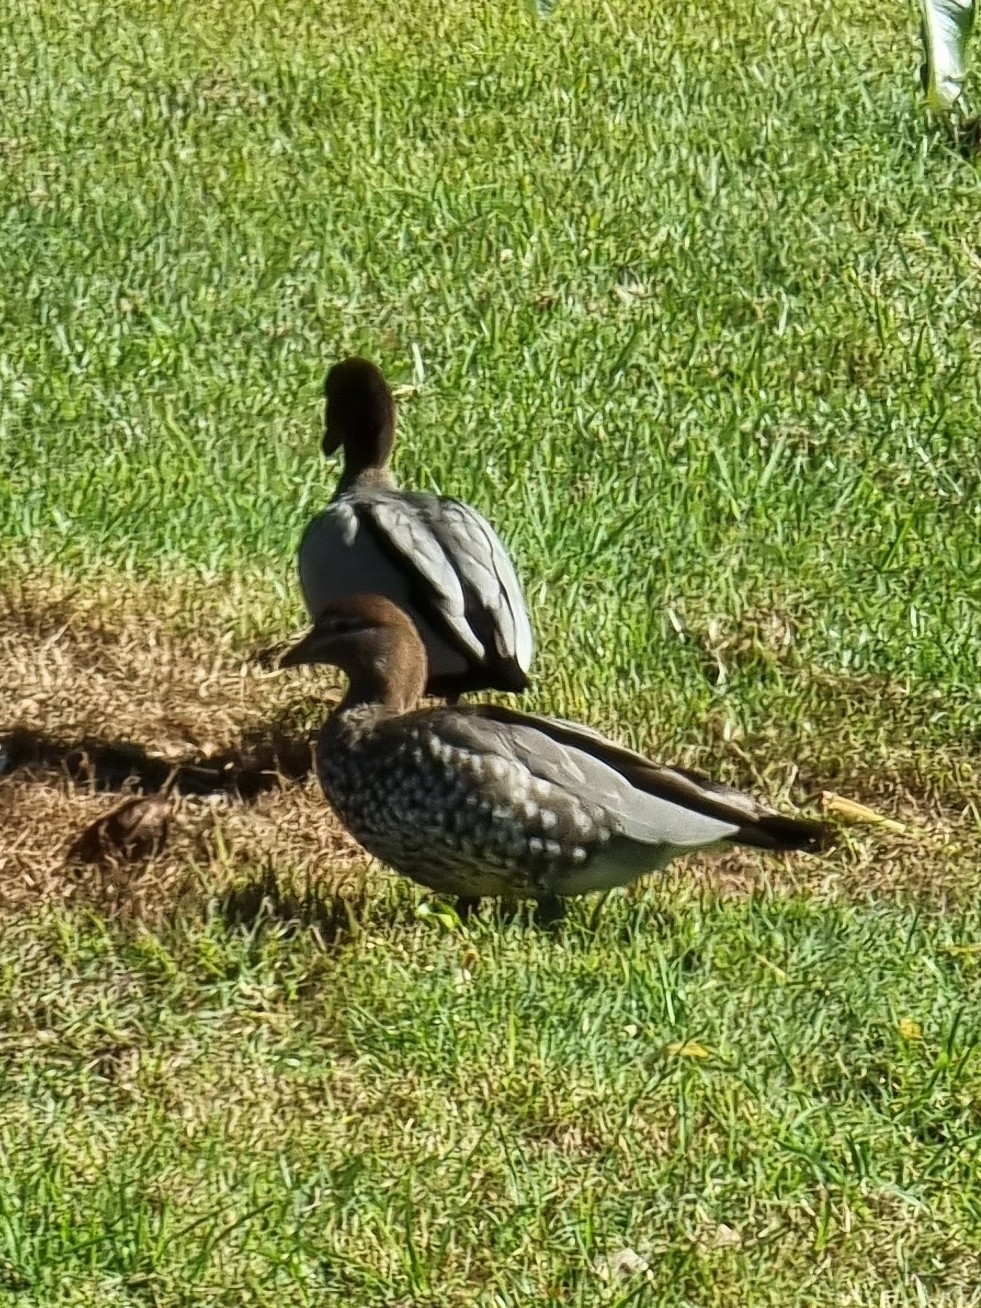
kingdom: Animalia
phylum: Chordata
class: Aves
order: Anseriformes
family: Anatidae
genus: Chenonetta
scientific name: Chenonetta jubata
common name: Maned duck
